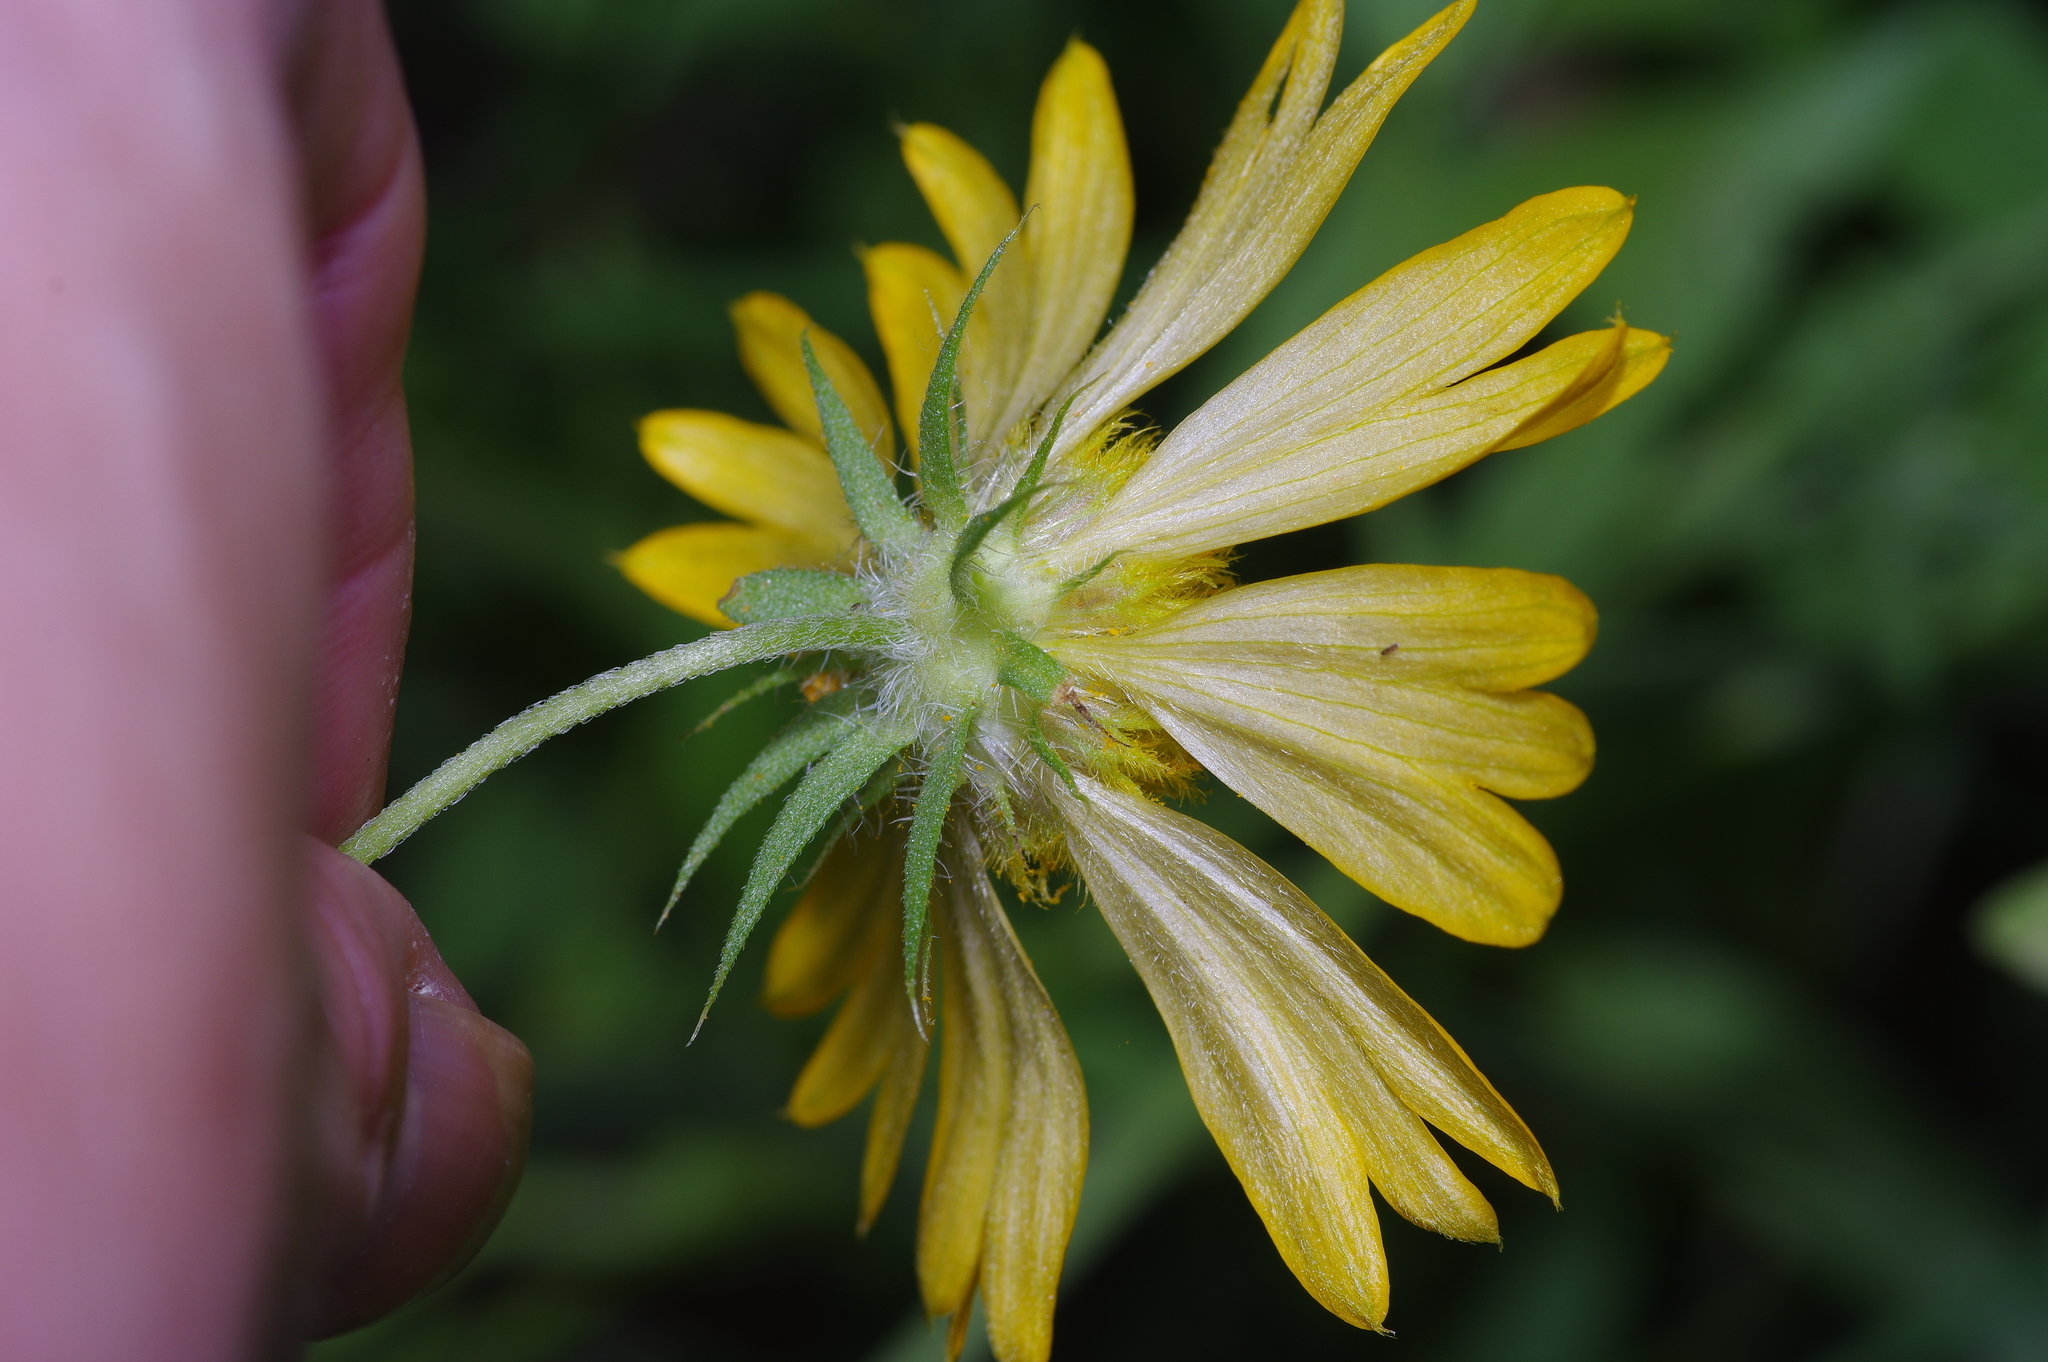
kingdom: Plantae
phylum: Tracheophyta
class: Magnoliopsida
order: Asterales
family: Asteraceae
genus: Gaillardia
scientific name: Gaillardia pulchella
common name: Firewheel
